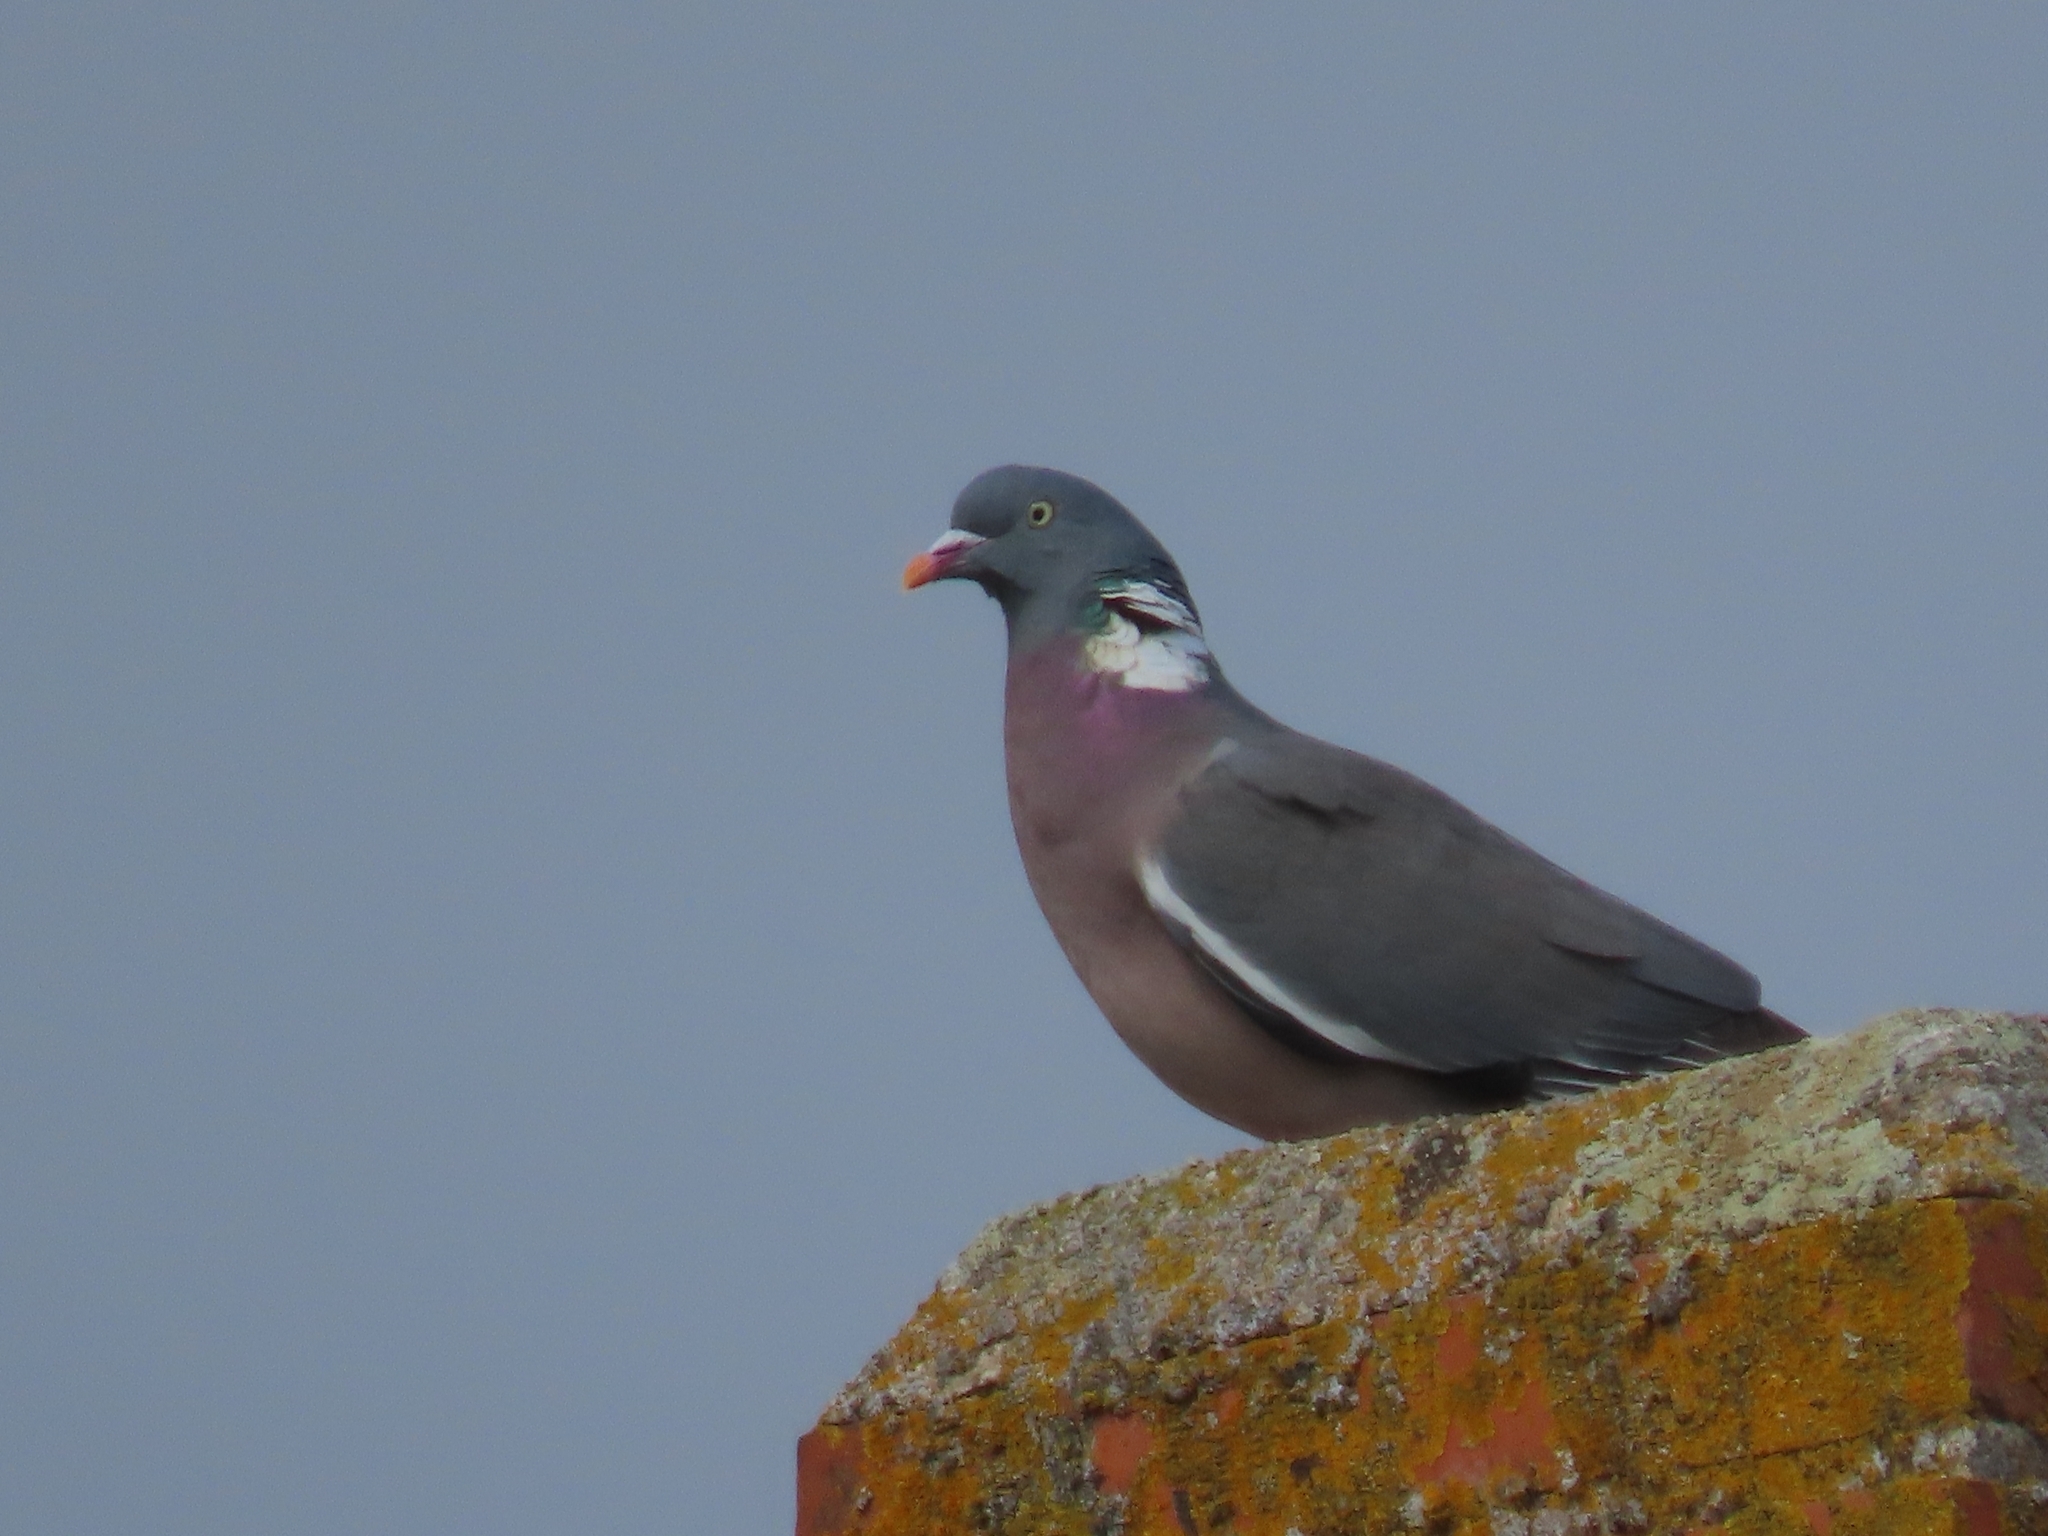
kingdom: Animalia
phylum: Chordata
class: Aves
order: Columbiformes
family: Columbidae
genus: Columba
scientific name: Columba palumbus
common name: Common wood pigeon
